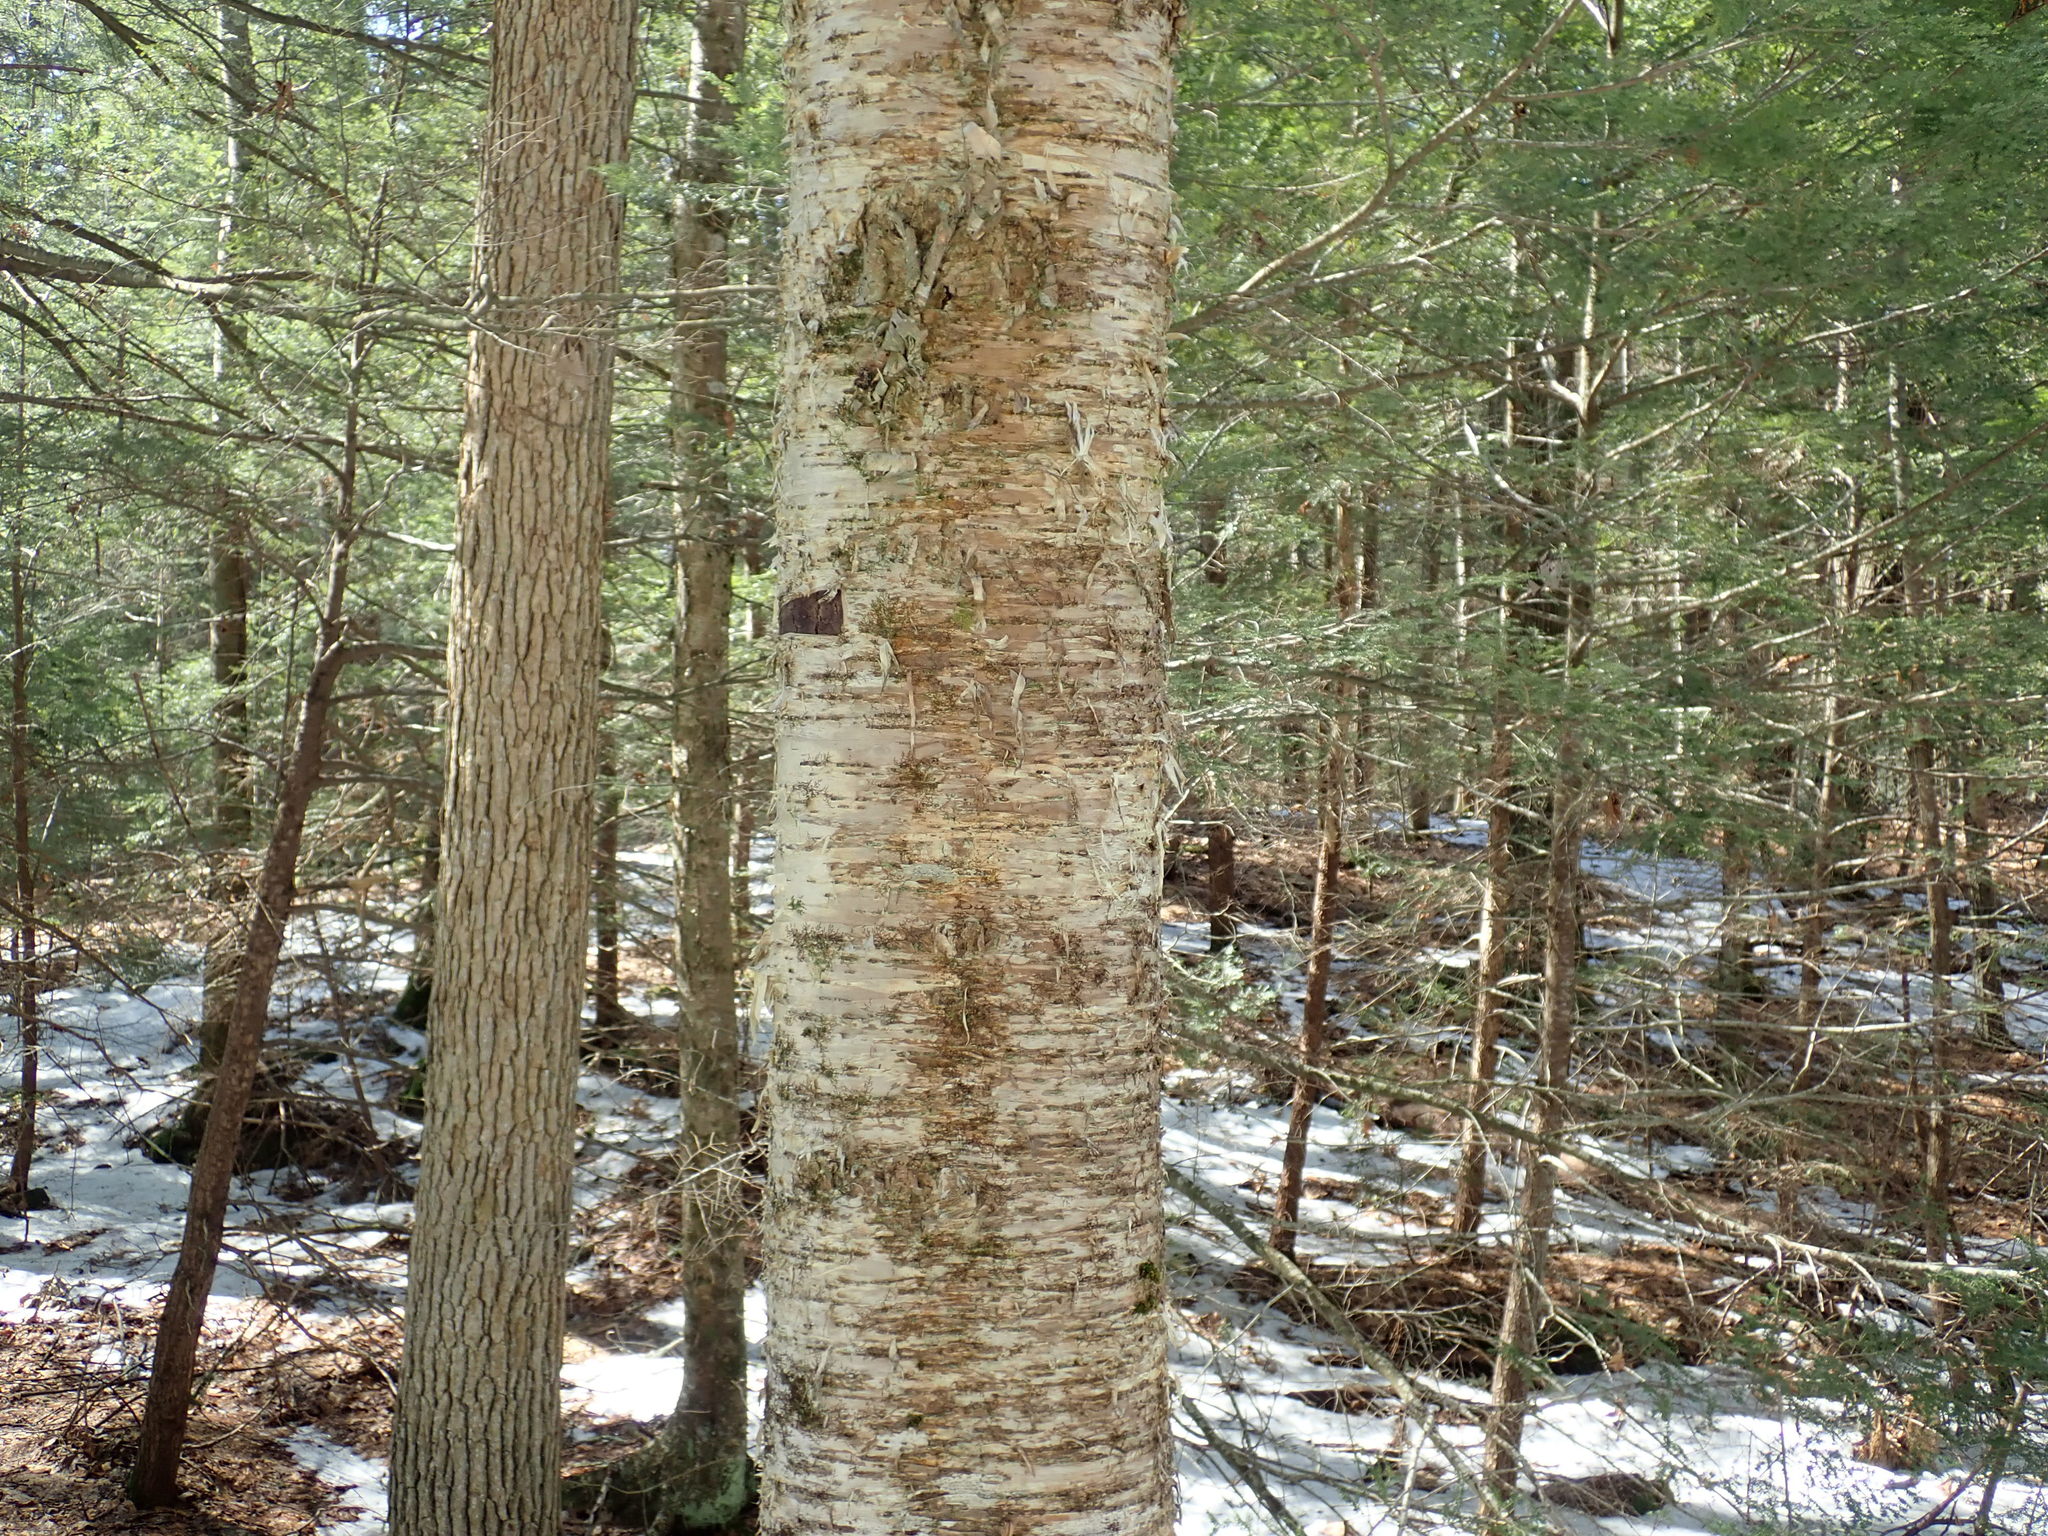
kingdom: Plantae
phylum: Tracheophyta
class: Magnoliopsida
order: Fagales
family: Betulaceae
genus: Betula
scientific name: Betula alleghaniensis
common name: Yellow birch
